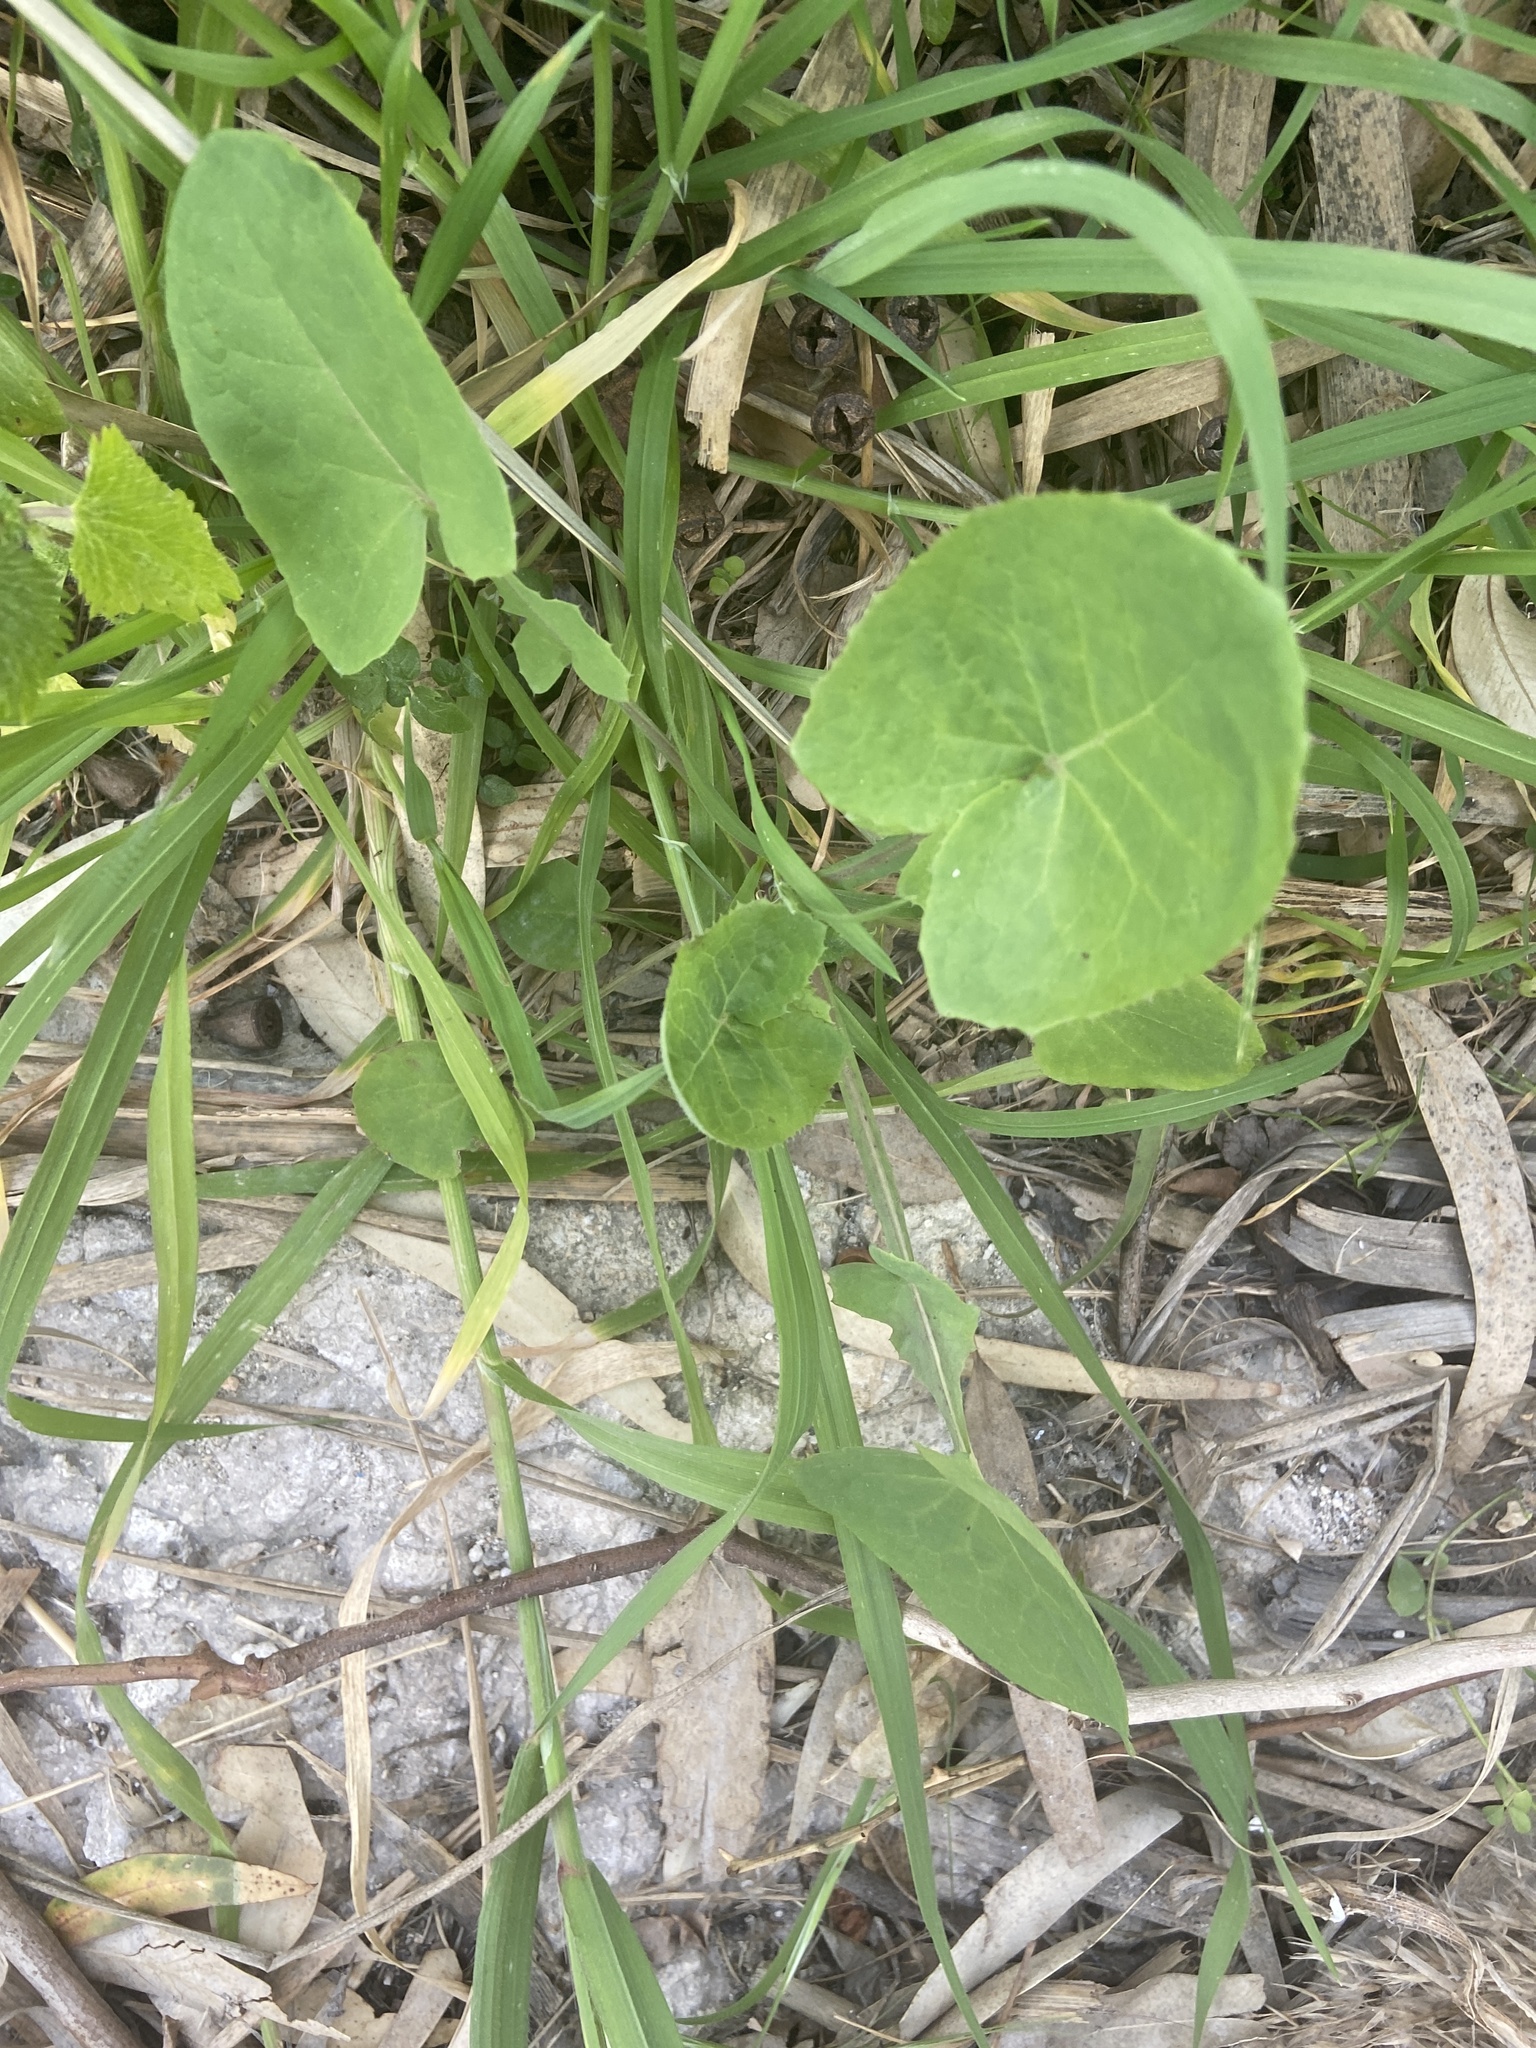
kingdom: Plantae
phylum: Tracheophyta
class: Magnoliopsida
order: Asterales
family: Asteraceae
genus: Sonchus
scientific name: Sonchus oleraceus
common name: Common sowthistle
